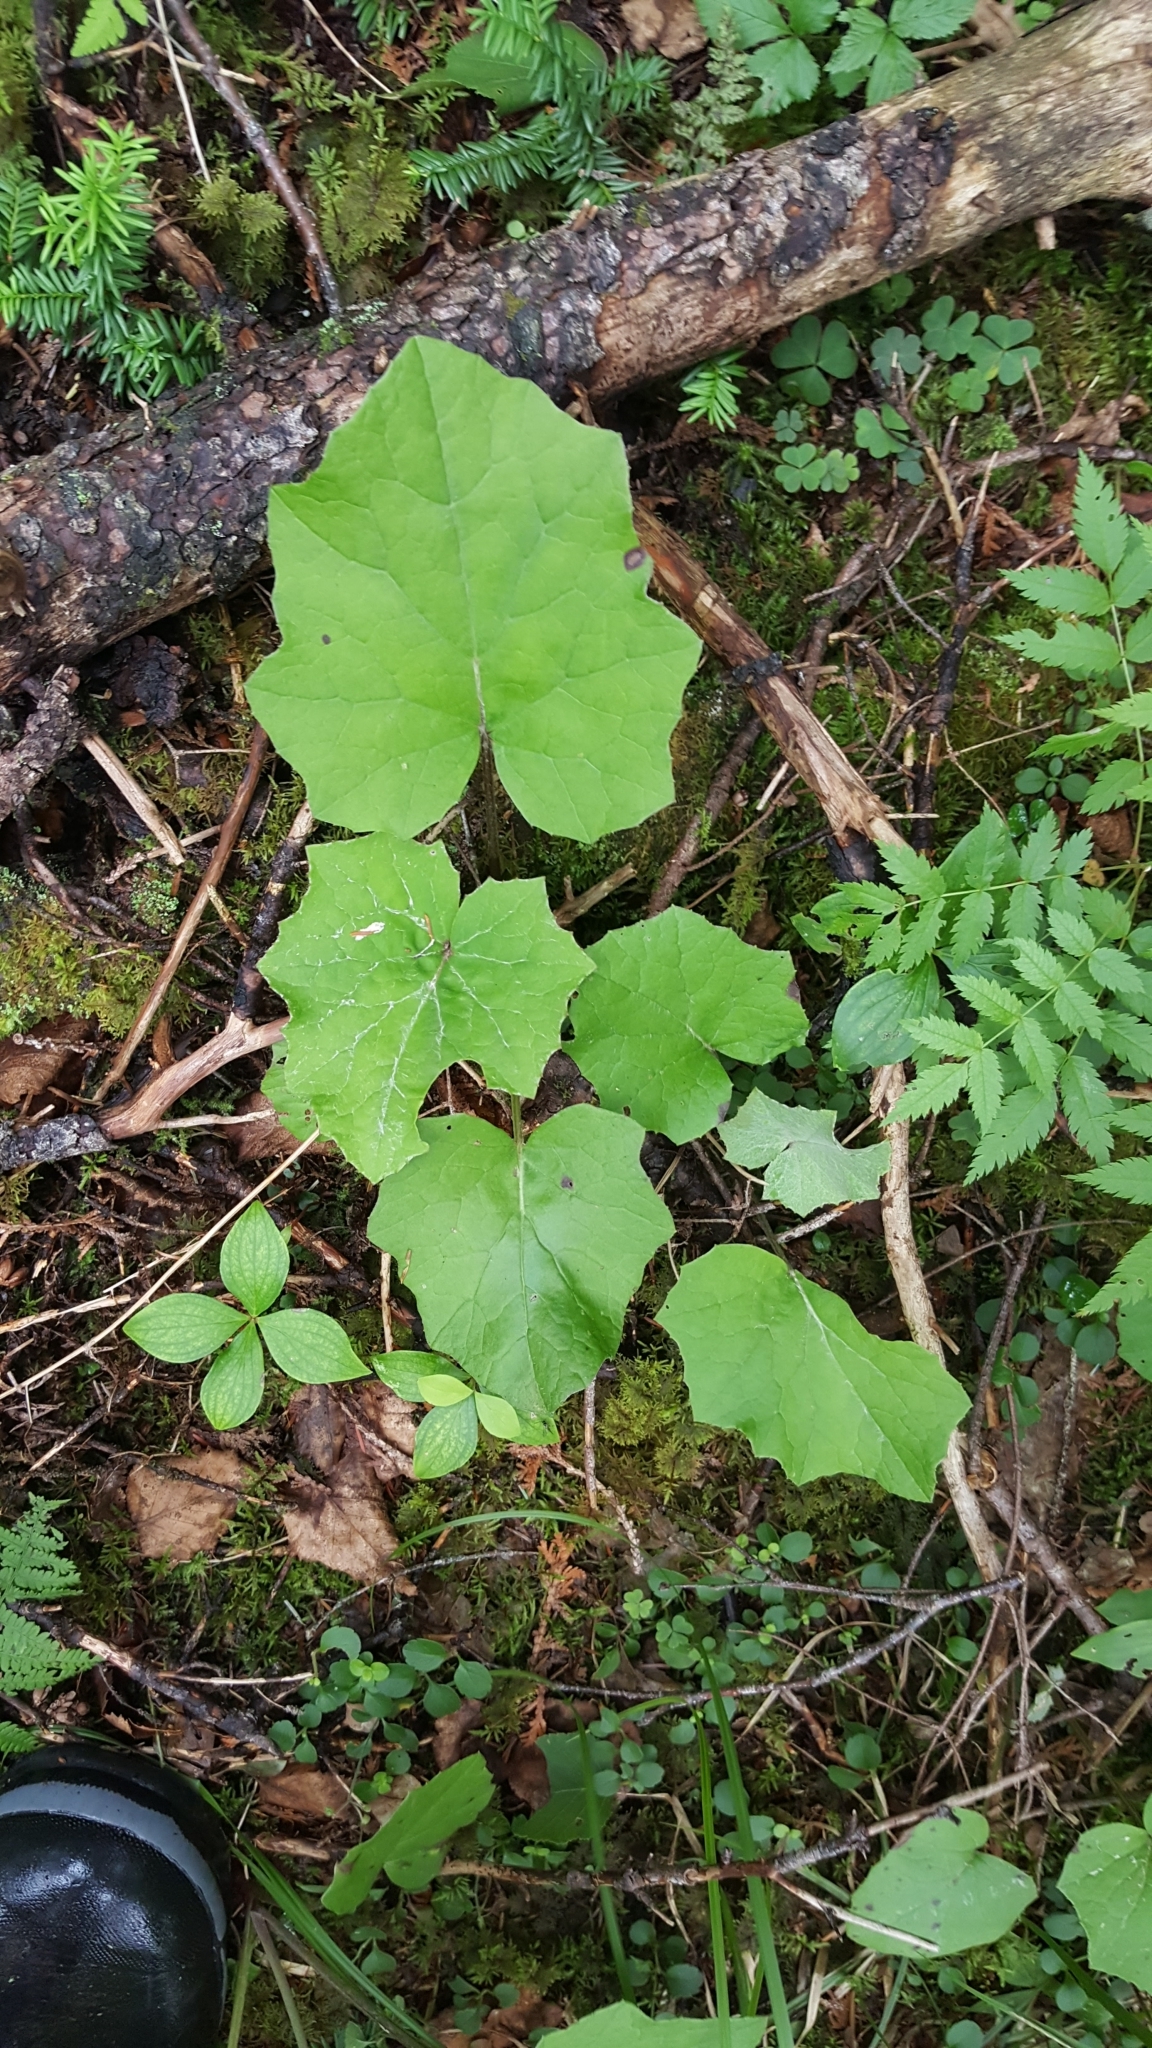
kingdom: Plantae
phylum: Tracheophyta
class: Magnoliopsida
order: Asterales
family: Asteraceae
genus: Tussilago
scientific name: Tussilago farfara
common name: Coltsfoot
